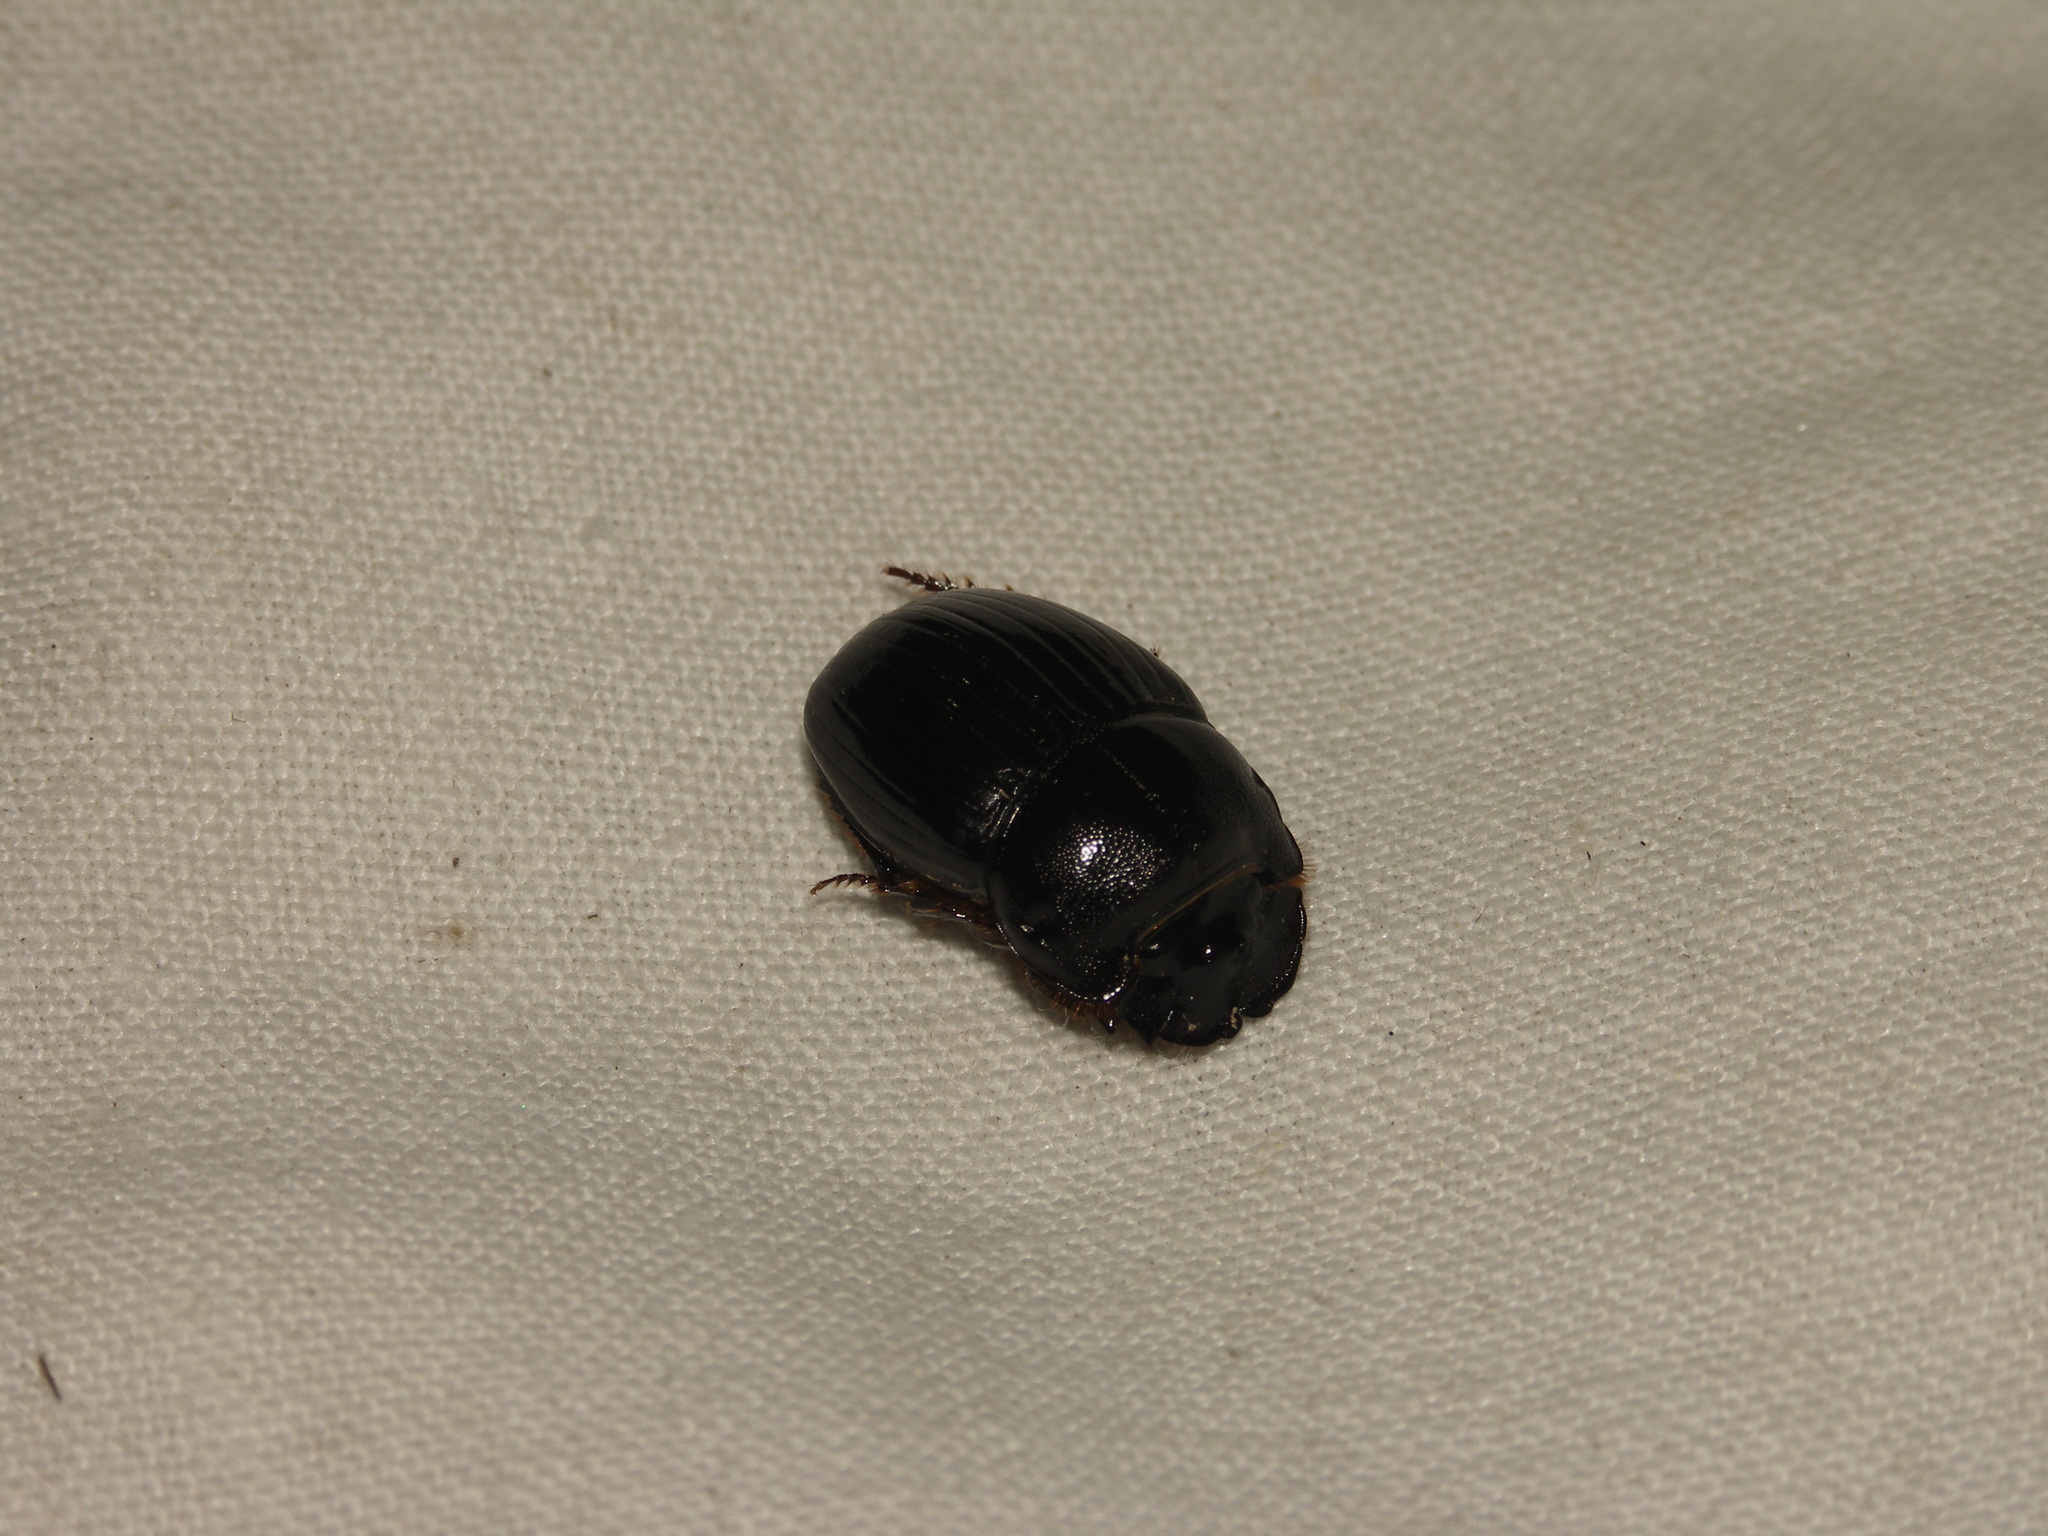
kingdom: Animalia
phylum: Arthropoda
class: Insecta
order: Coleoptera
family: Scarabaeidae
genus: Copris
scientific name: Copris lunaris
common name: Horned dung beetle
